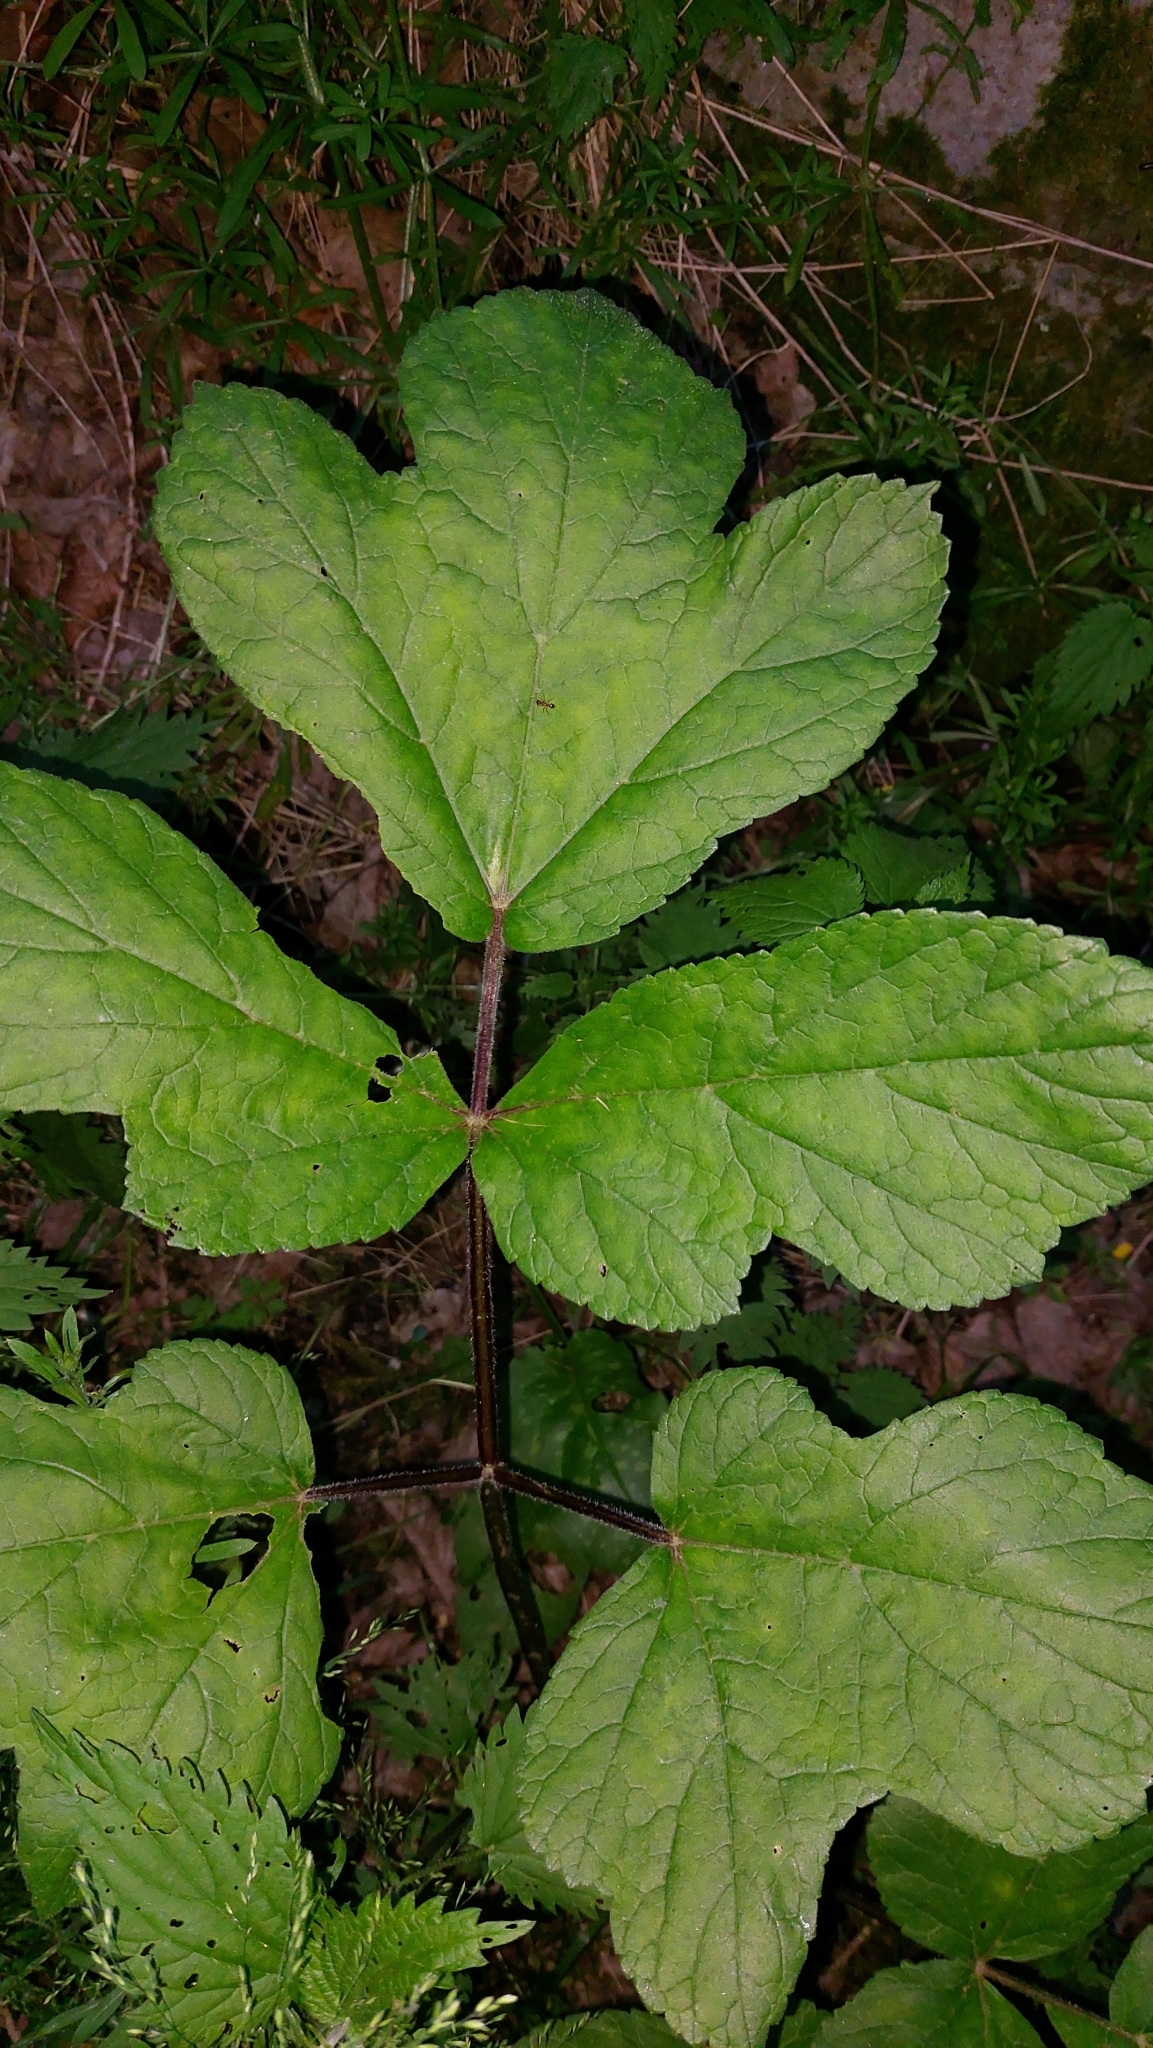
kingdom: Plantae
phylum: Tracheophyta
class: Magnoliopsida
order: Apiales
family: Apiaceae
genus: Heracleum
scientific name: Heracleum sphondylium
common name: Hogweed
